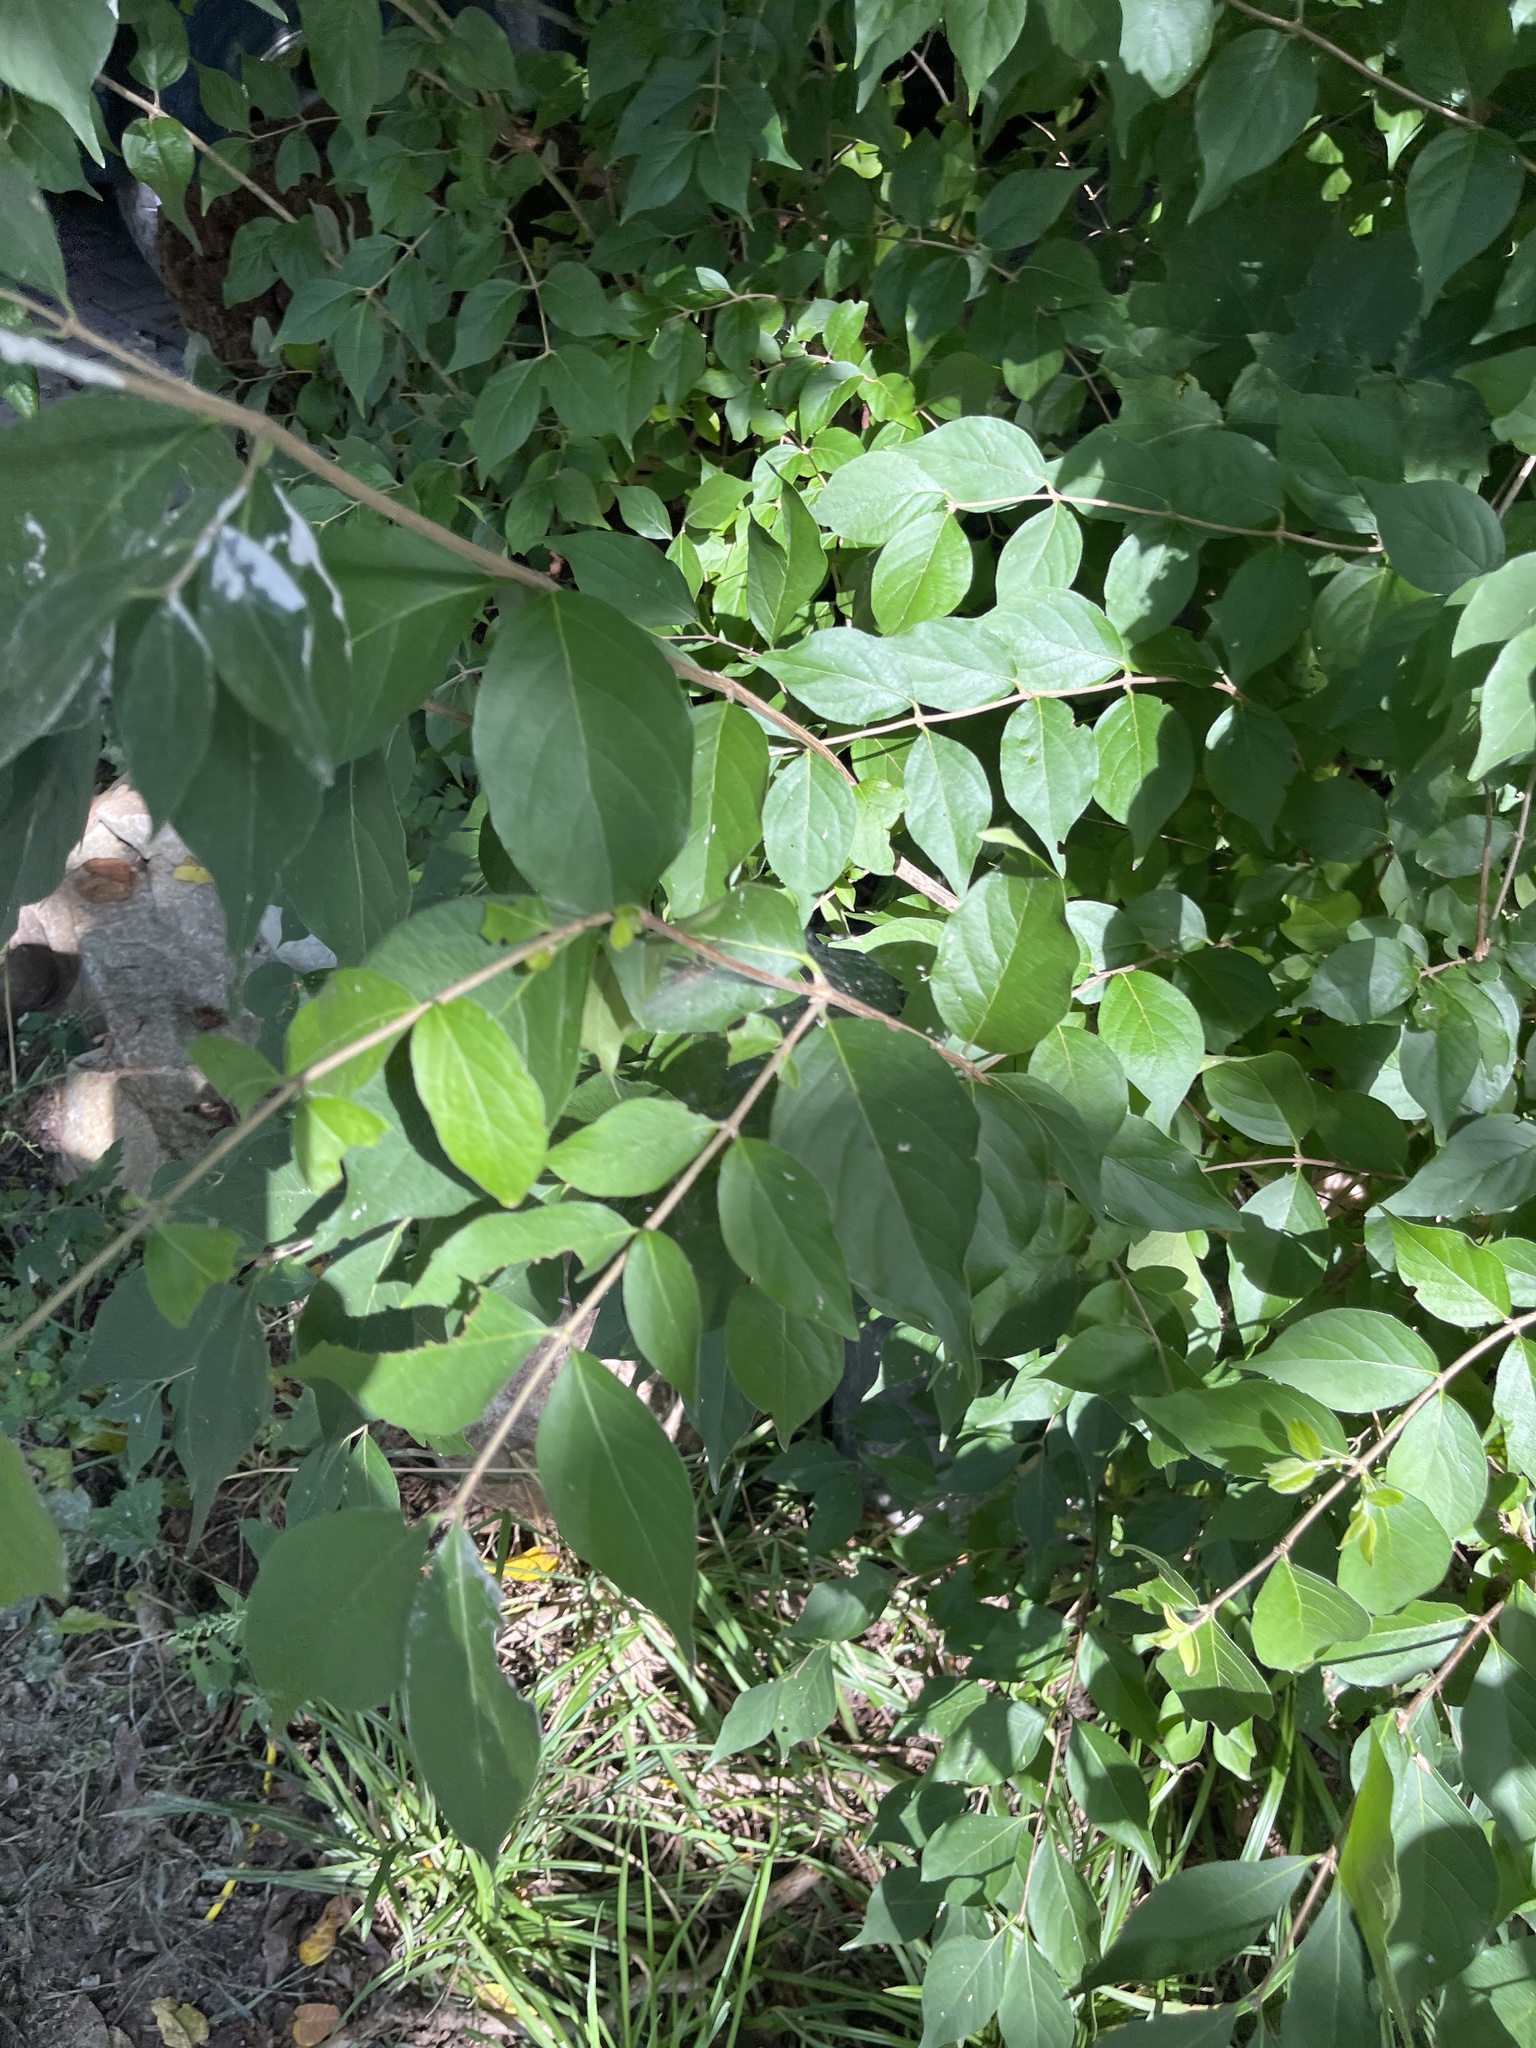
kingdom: Plantae
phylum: Tracheophyta
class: Magnoliopsida
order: Dipsacales
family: Caprifoliaceae
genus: Lonicera
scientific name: Lonicera maackii
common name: Amur honeysuckle
